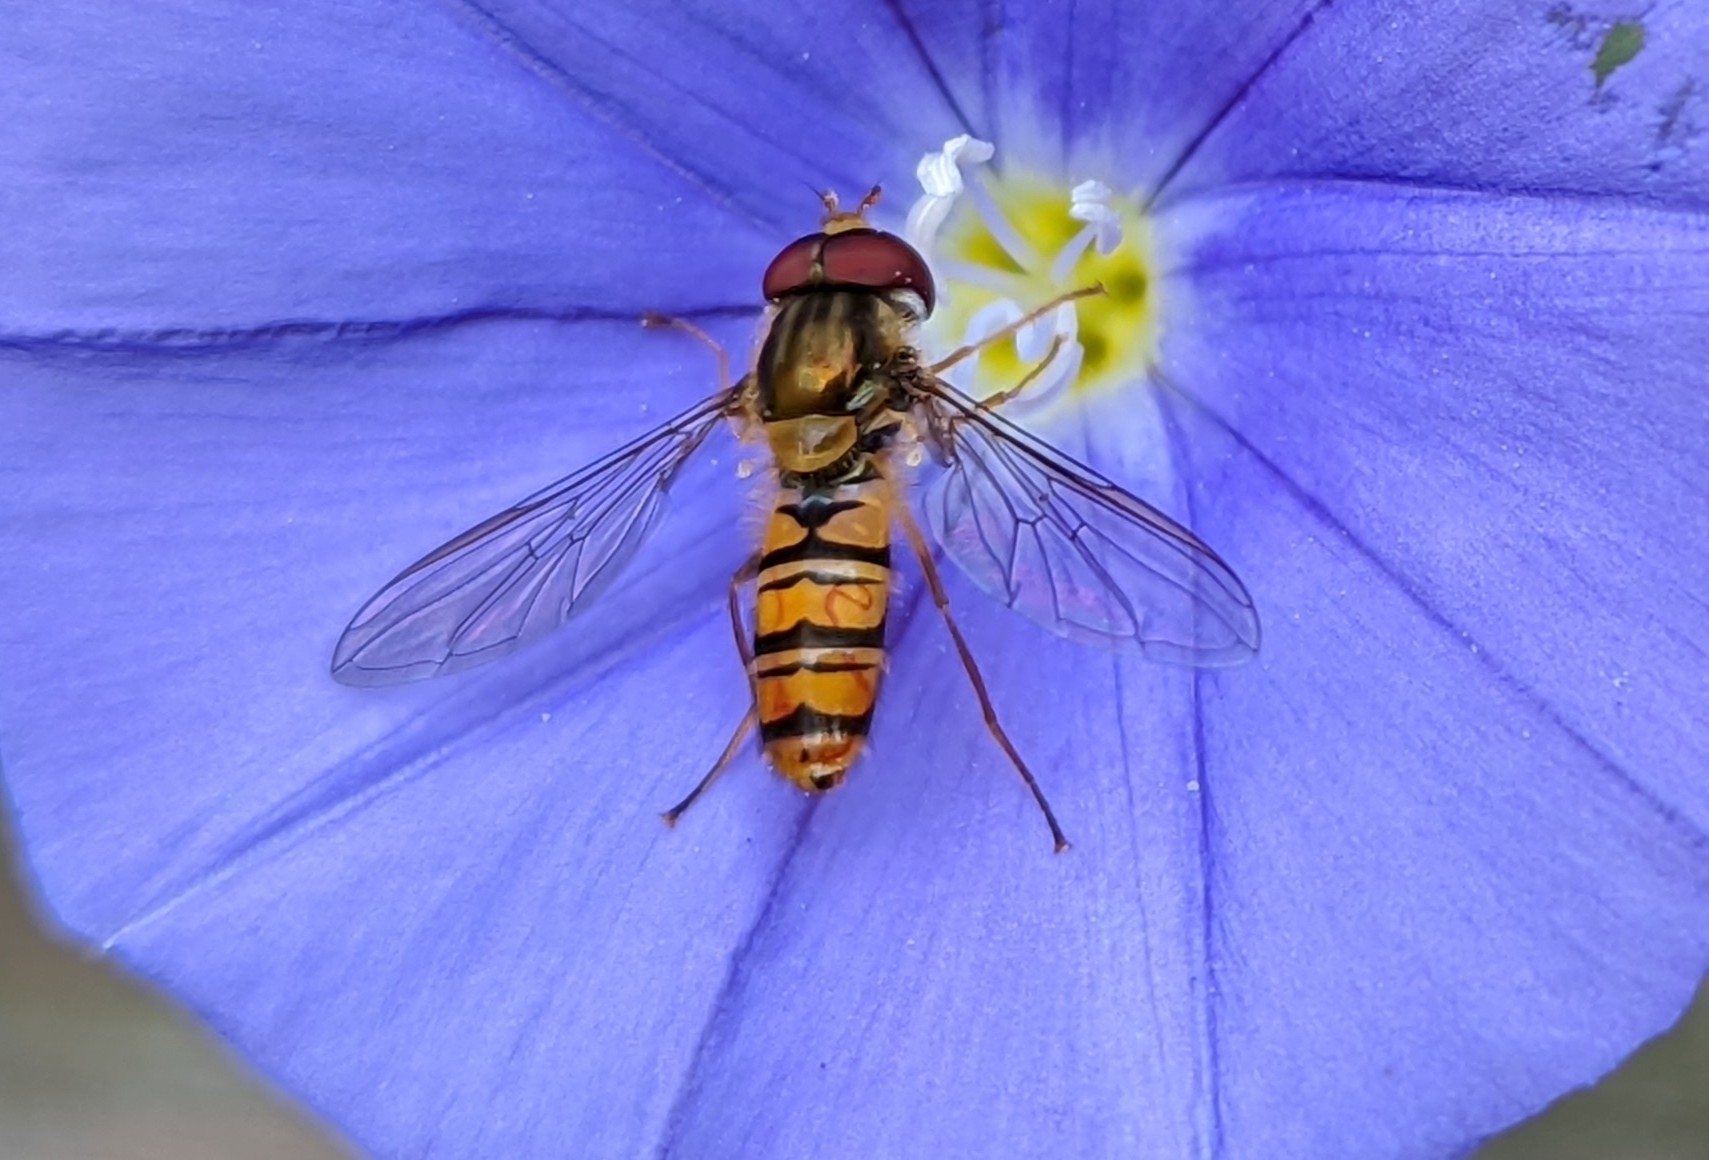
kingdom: Animalia
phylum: Arthropoda
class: Insecta
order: Diptera
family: Syrphidae
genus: Episyrphus
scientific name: Episyrphus balteatus
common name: Marmalade hoverfly
